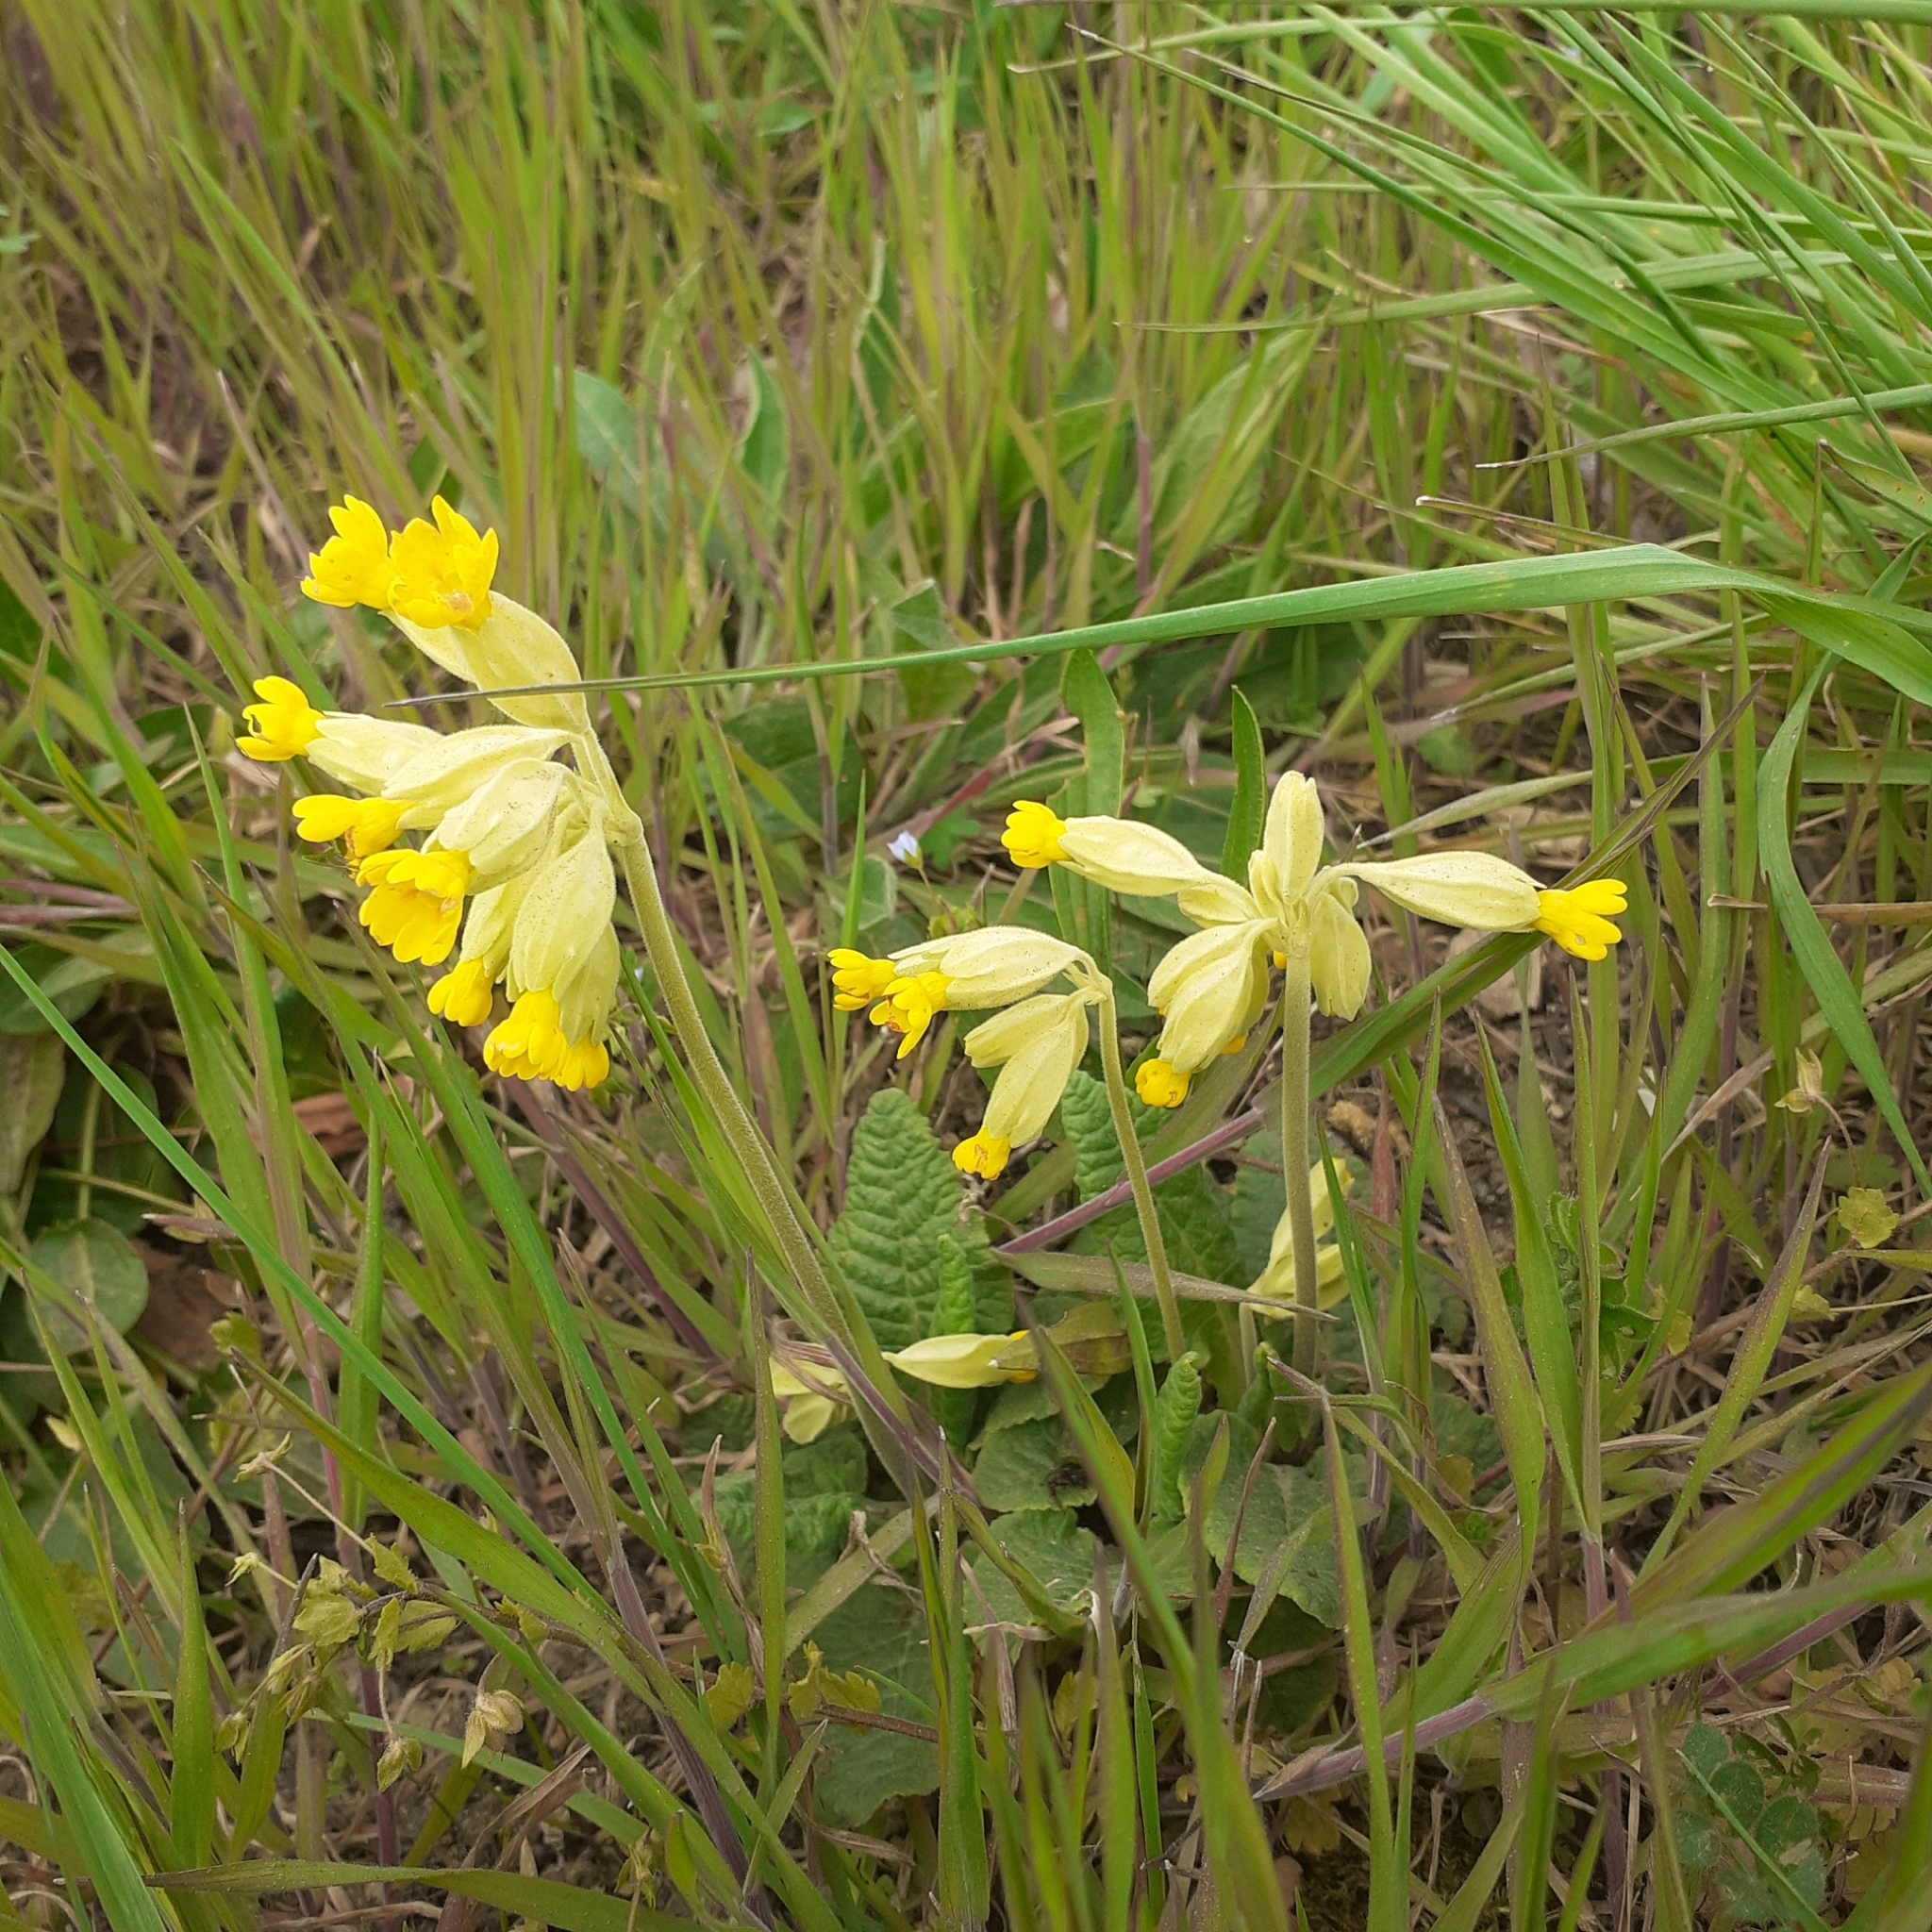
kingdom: Plantae
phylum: Tracheophyta
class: Magnoliopsida
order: Ericales
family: Primulaceae
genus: Primula
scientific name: Primula veris
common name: Cowslip
